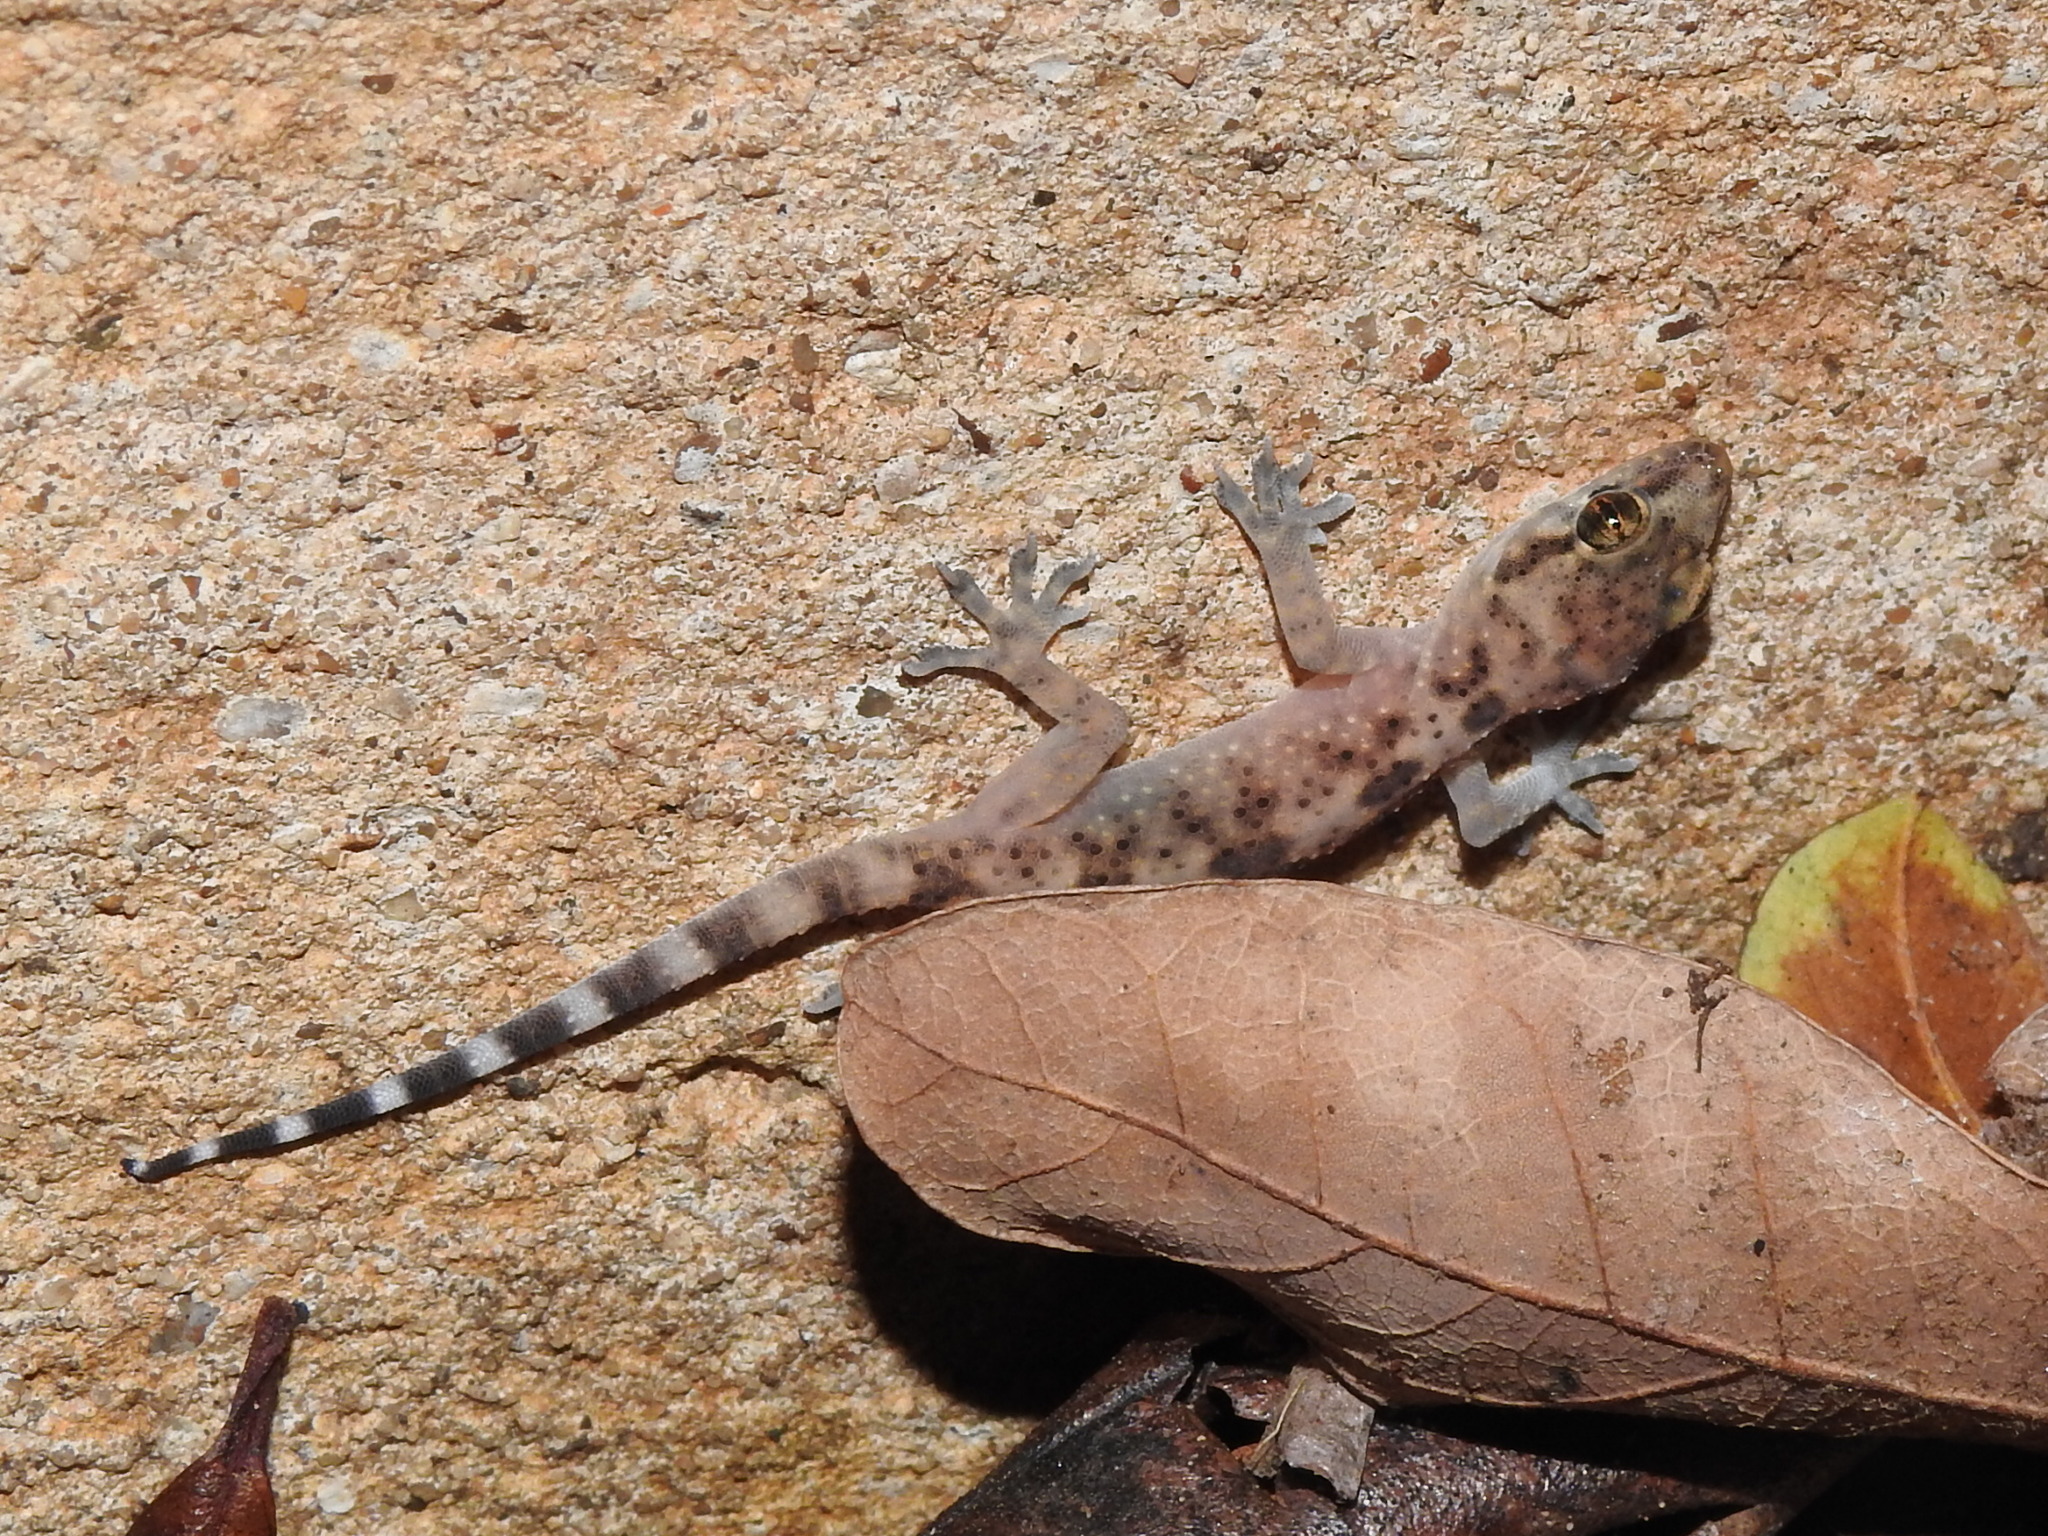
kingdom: Animalia
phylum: Chordata
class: Squamata
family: Gekkonidae
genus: Hemidactylus
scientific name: Hemidactylus turcicus
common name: Turkish gecko
